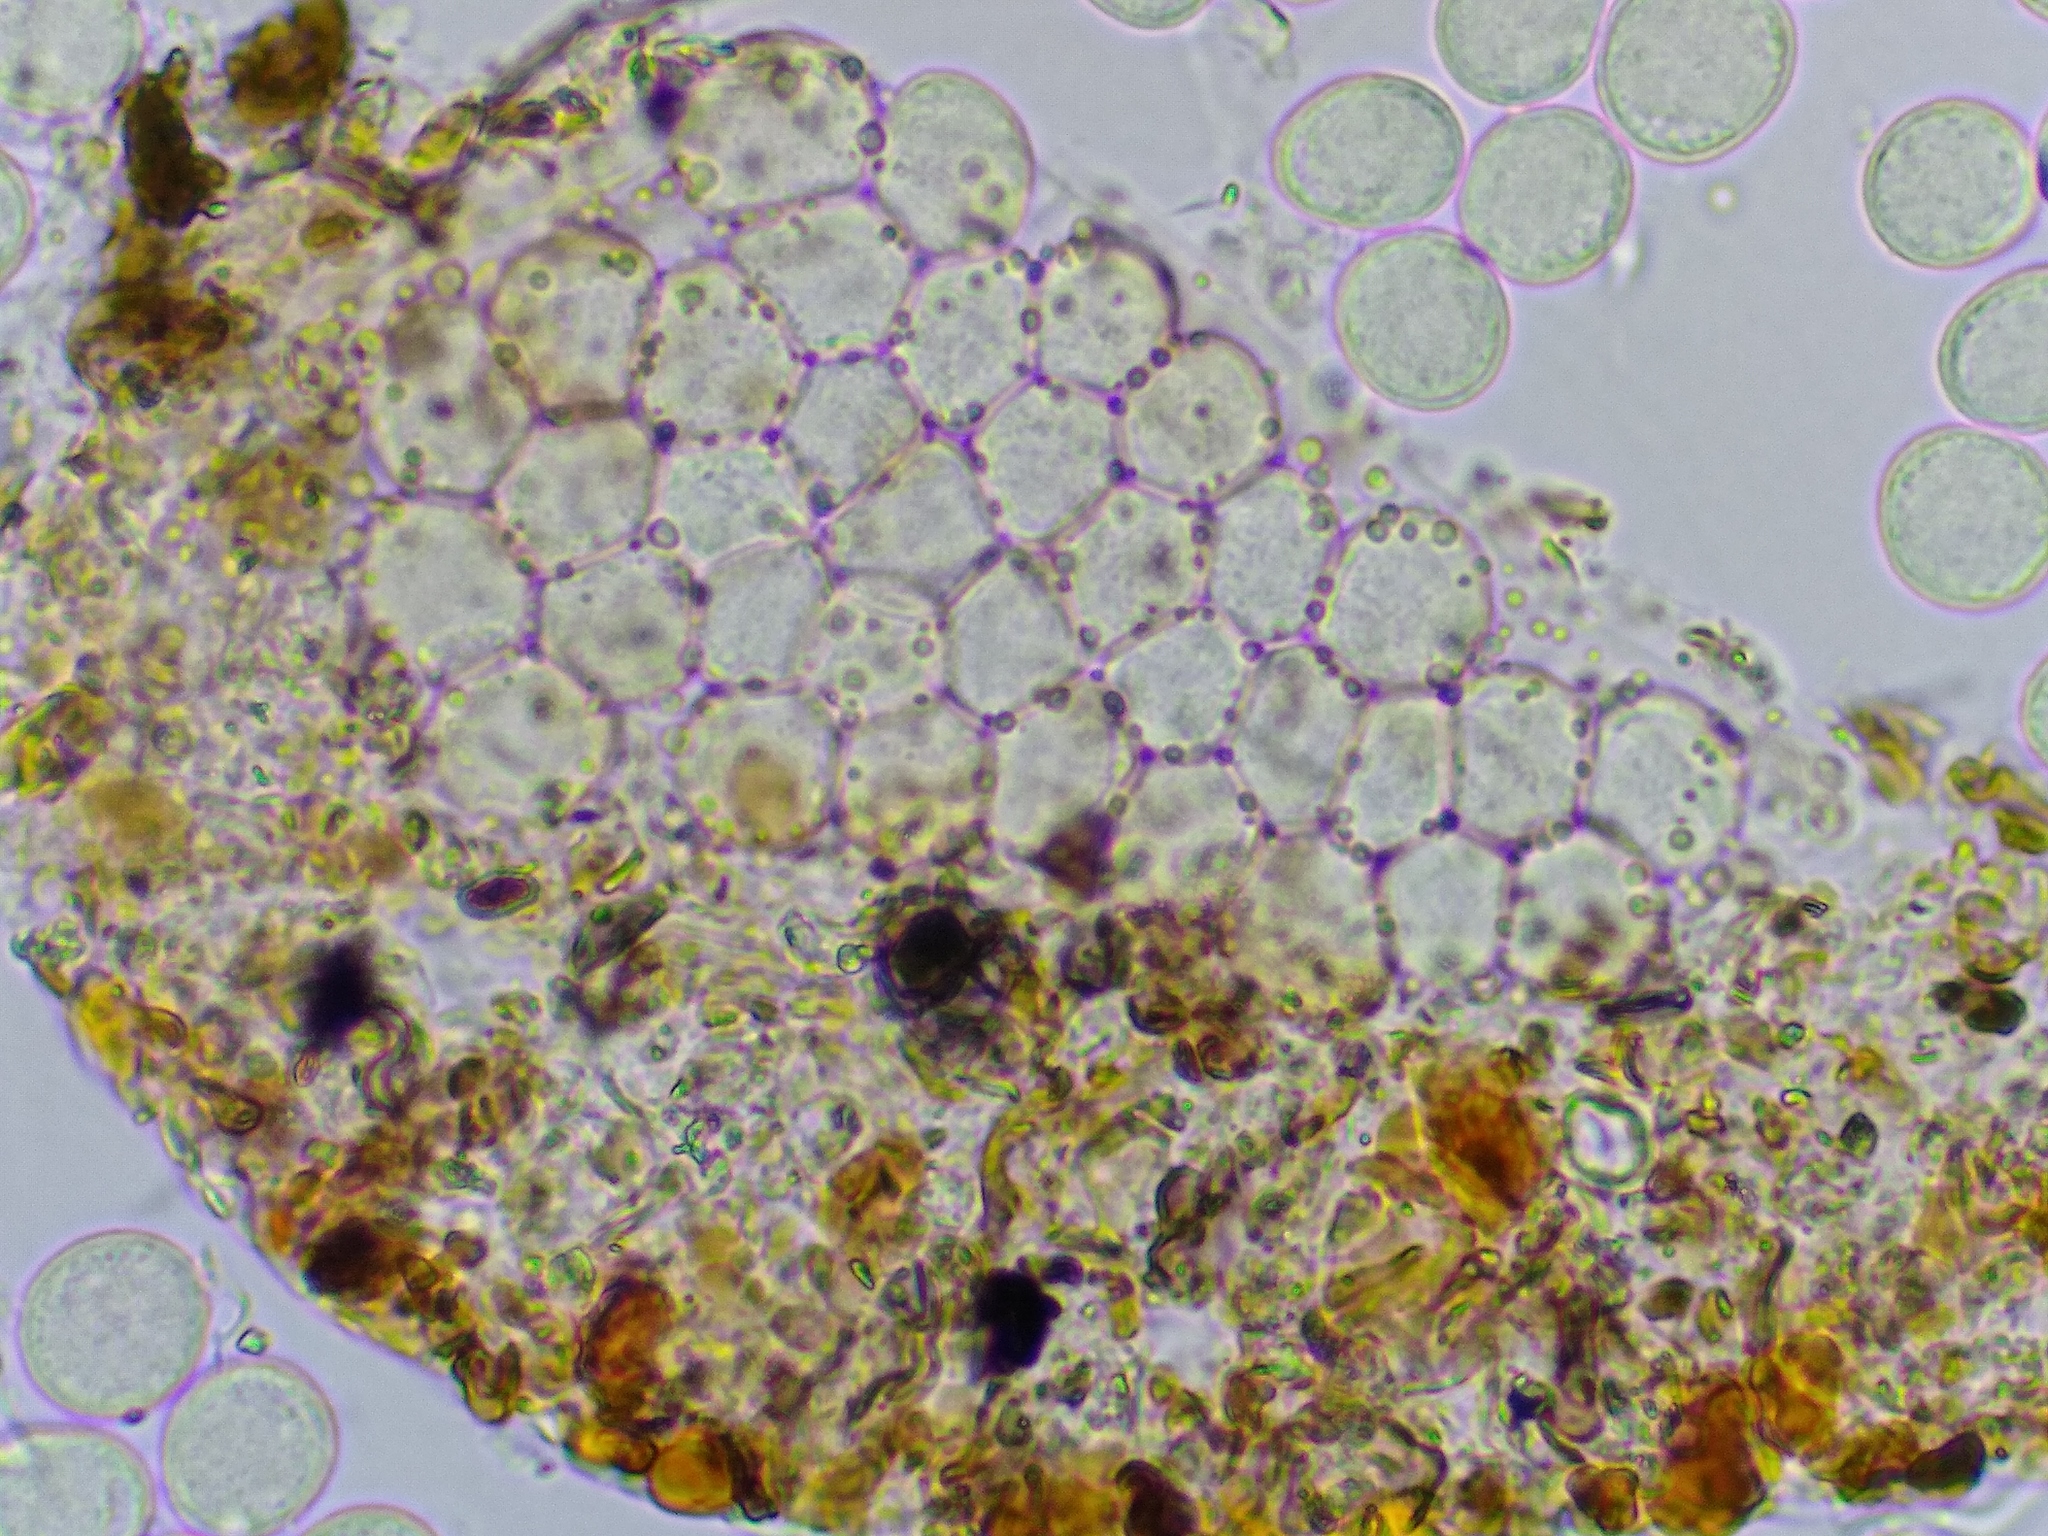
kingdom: Protozoa
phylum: Mycetozoa
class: Myxomycetes
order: Cribrariales
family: Liceaceae
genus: Licea
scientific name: Licea biforis
